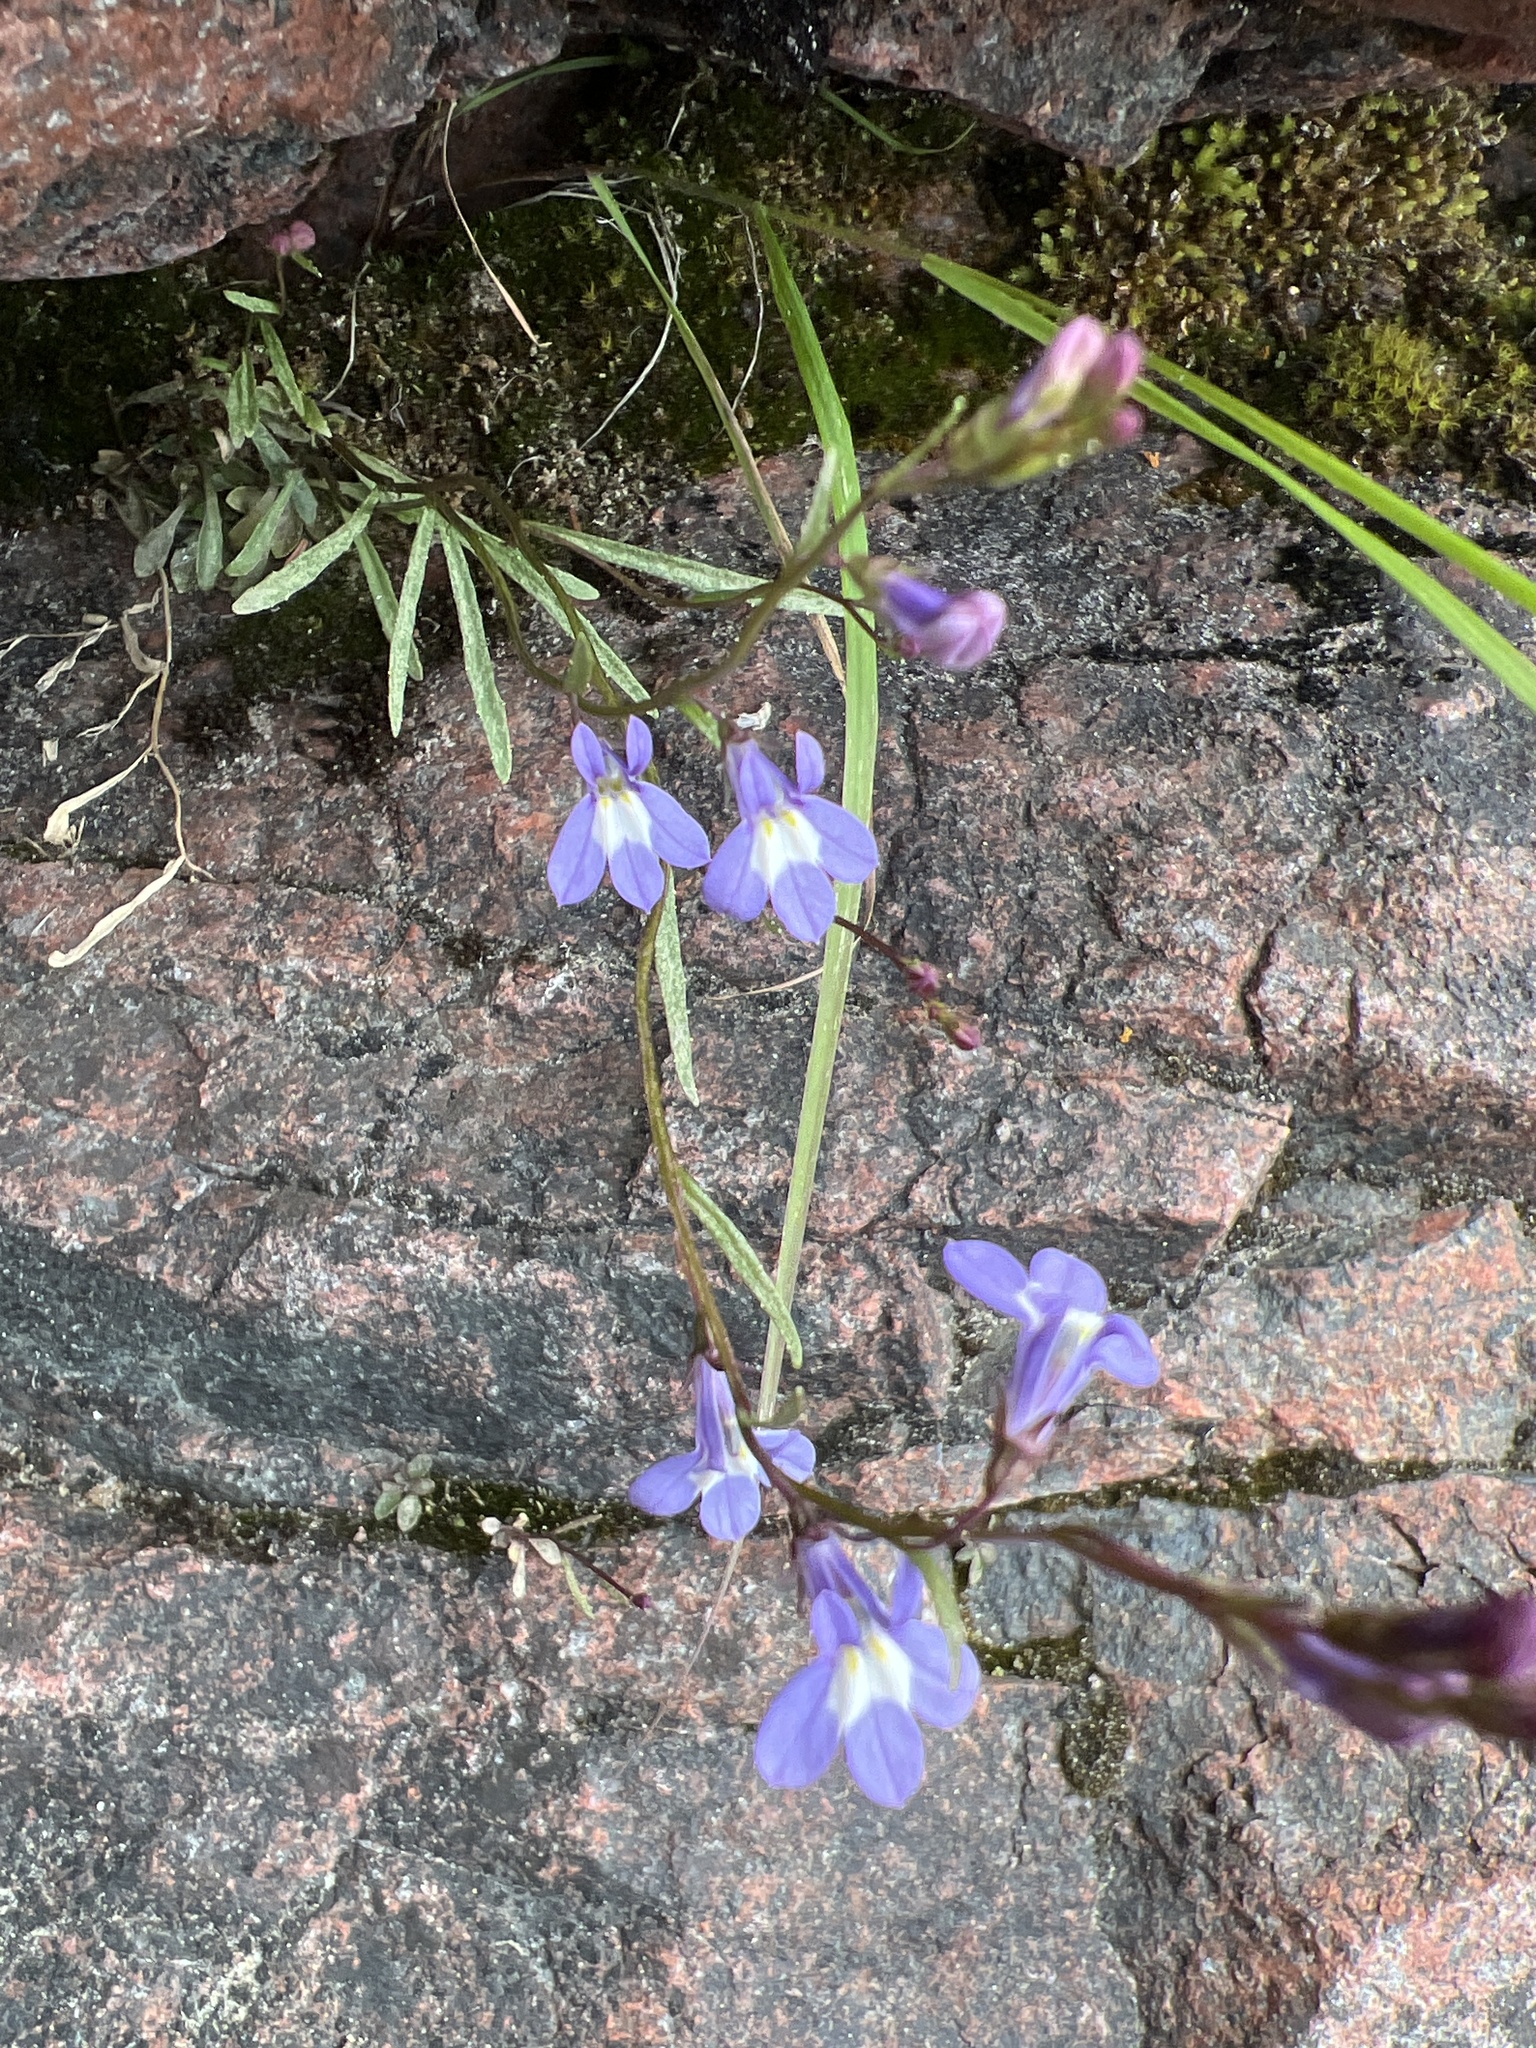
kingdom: Plantae
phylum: Tracheophyta
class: Magnoliopsida
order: Asterales
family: Campanulaceae
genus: Lobelia
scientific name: Lobelia kalmii
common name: Kalm's lobelia
